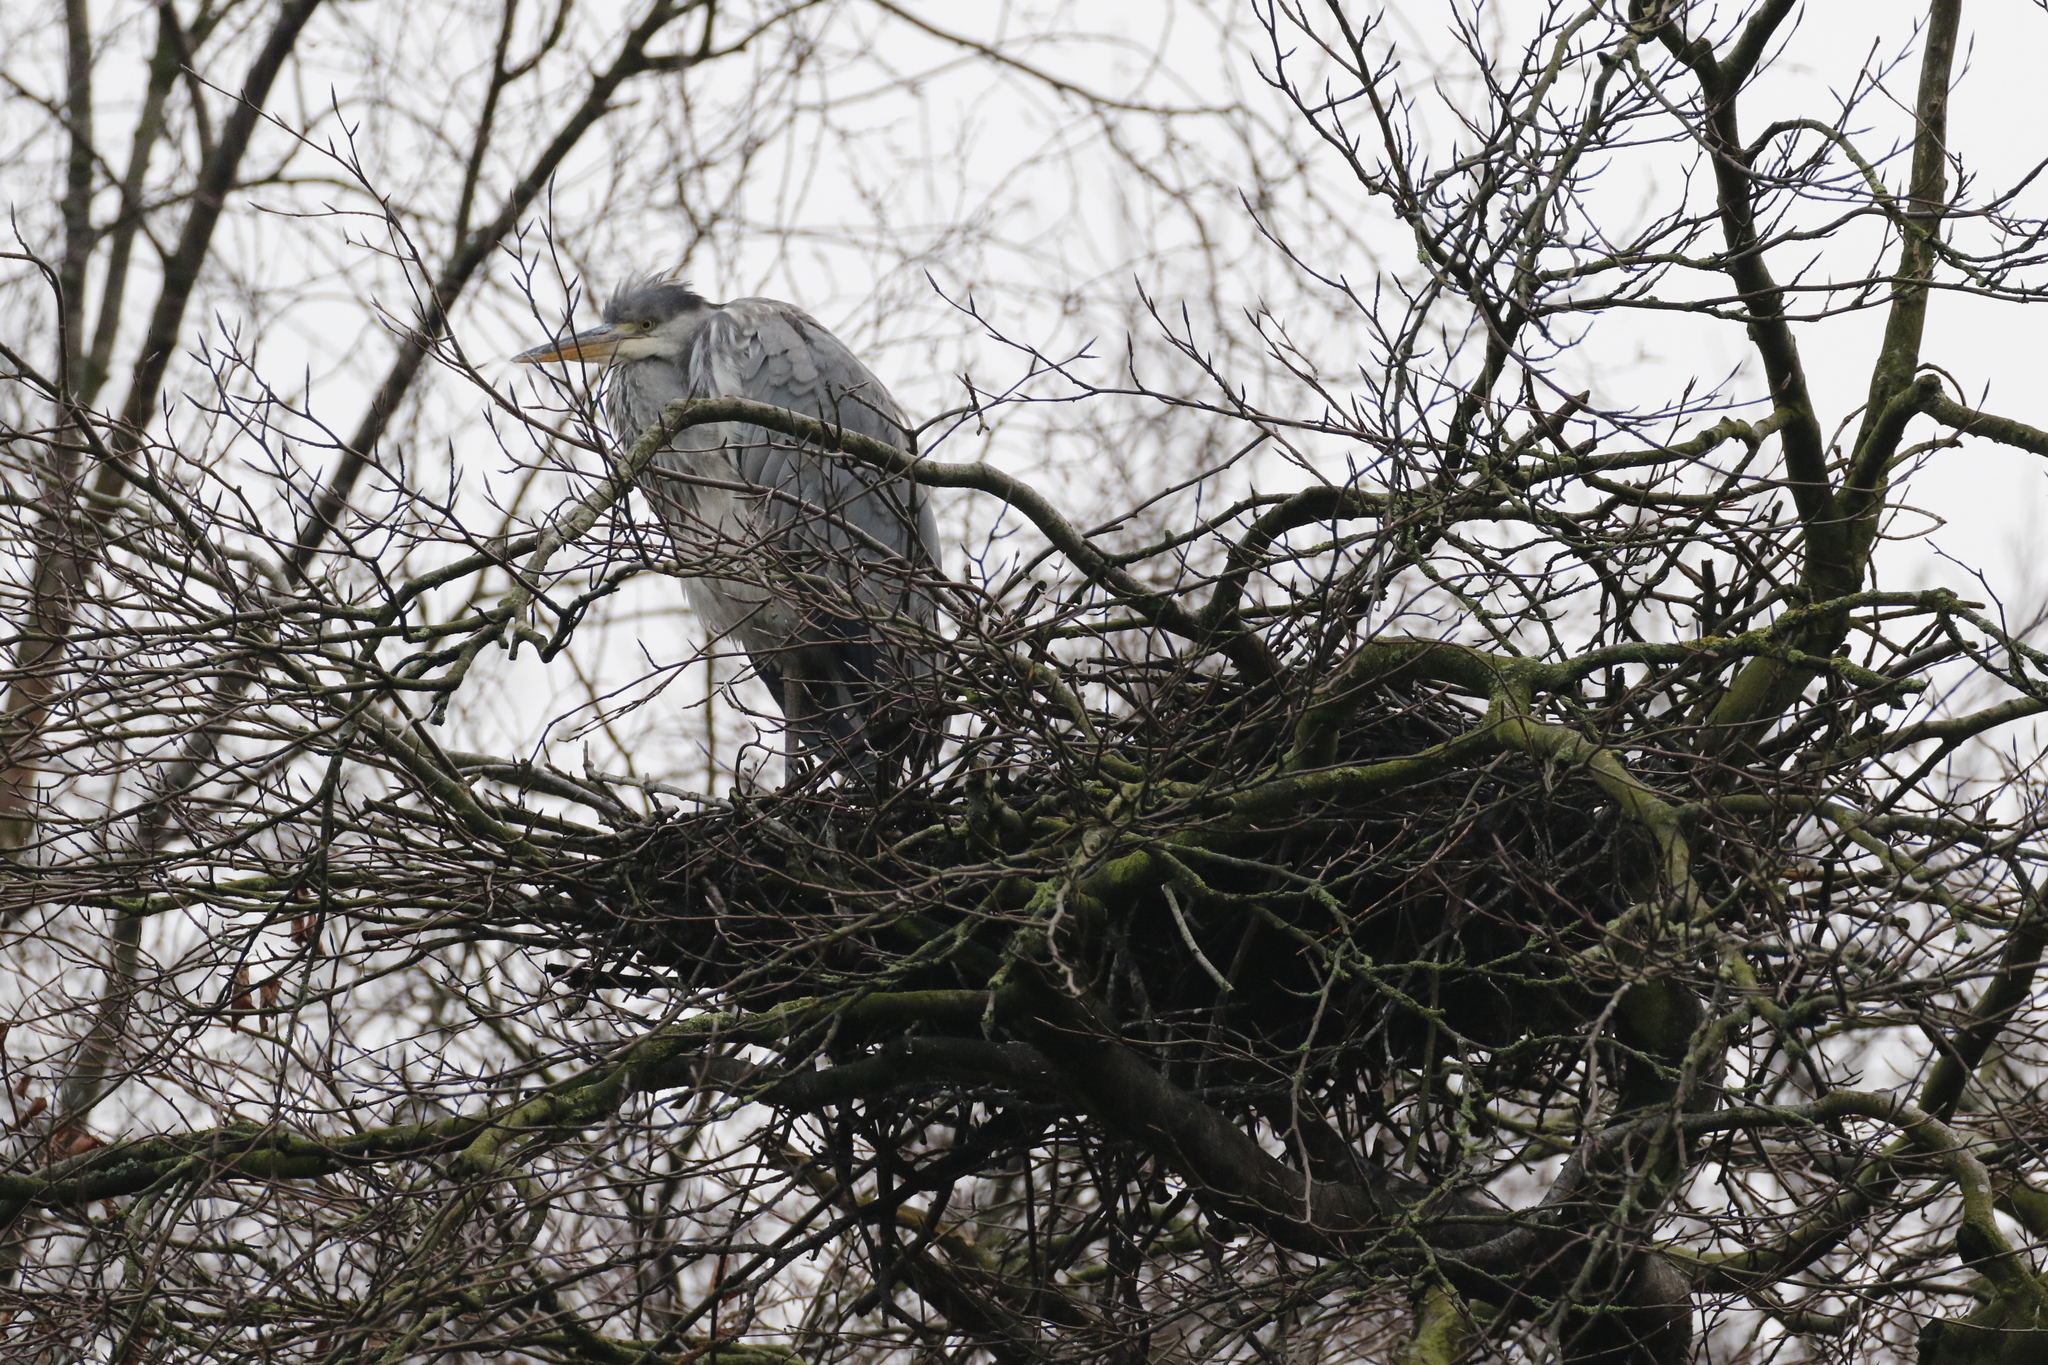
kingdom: Animalia
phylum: Chordata
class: Aves
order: Pelecaniformes
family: Ardeidae
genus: Ardea
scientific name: Ardea cinerea
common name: Grey heron
